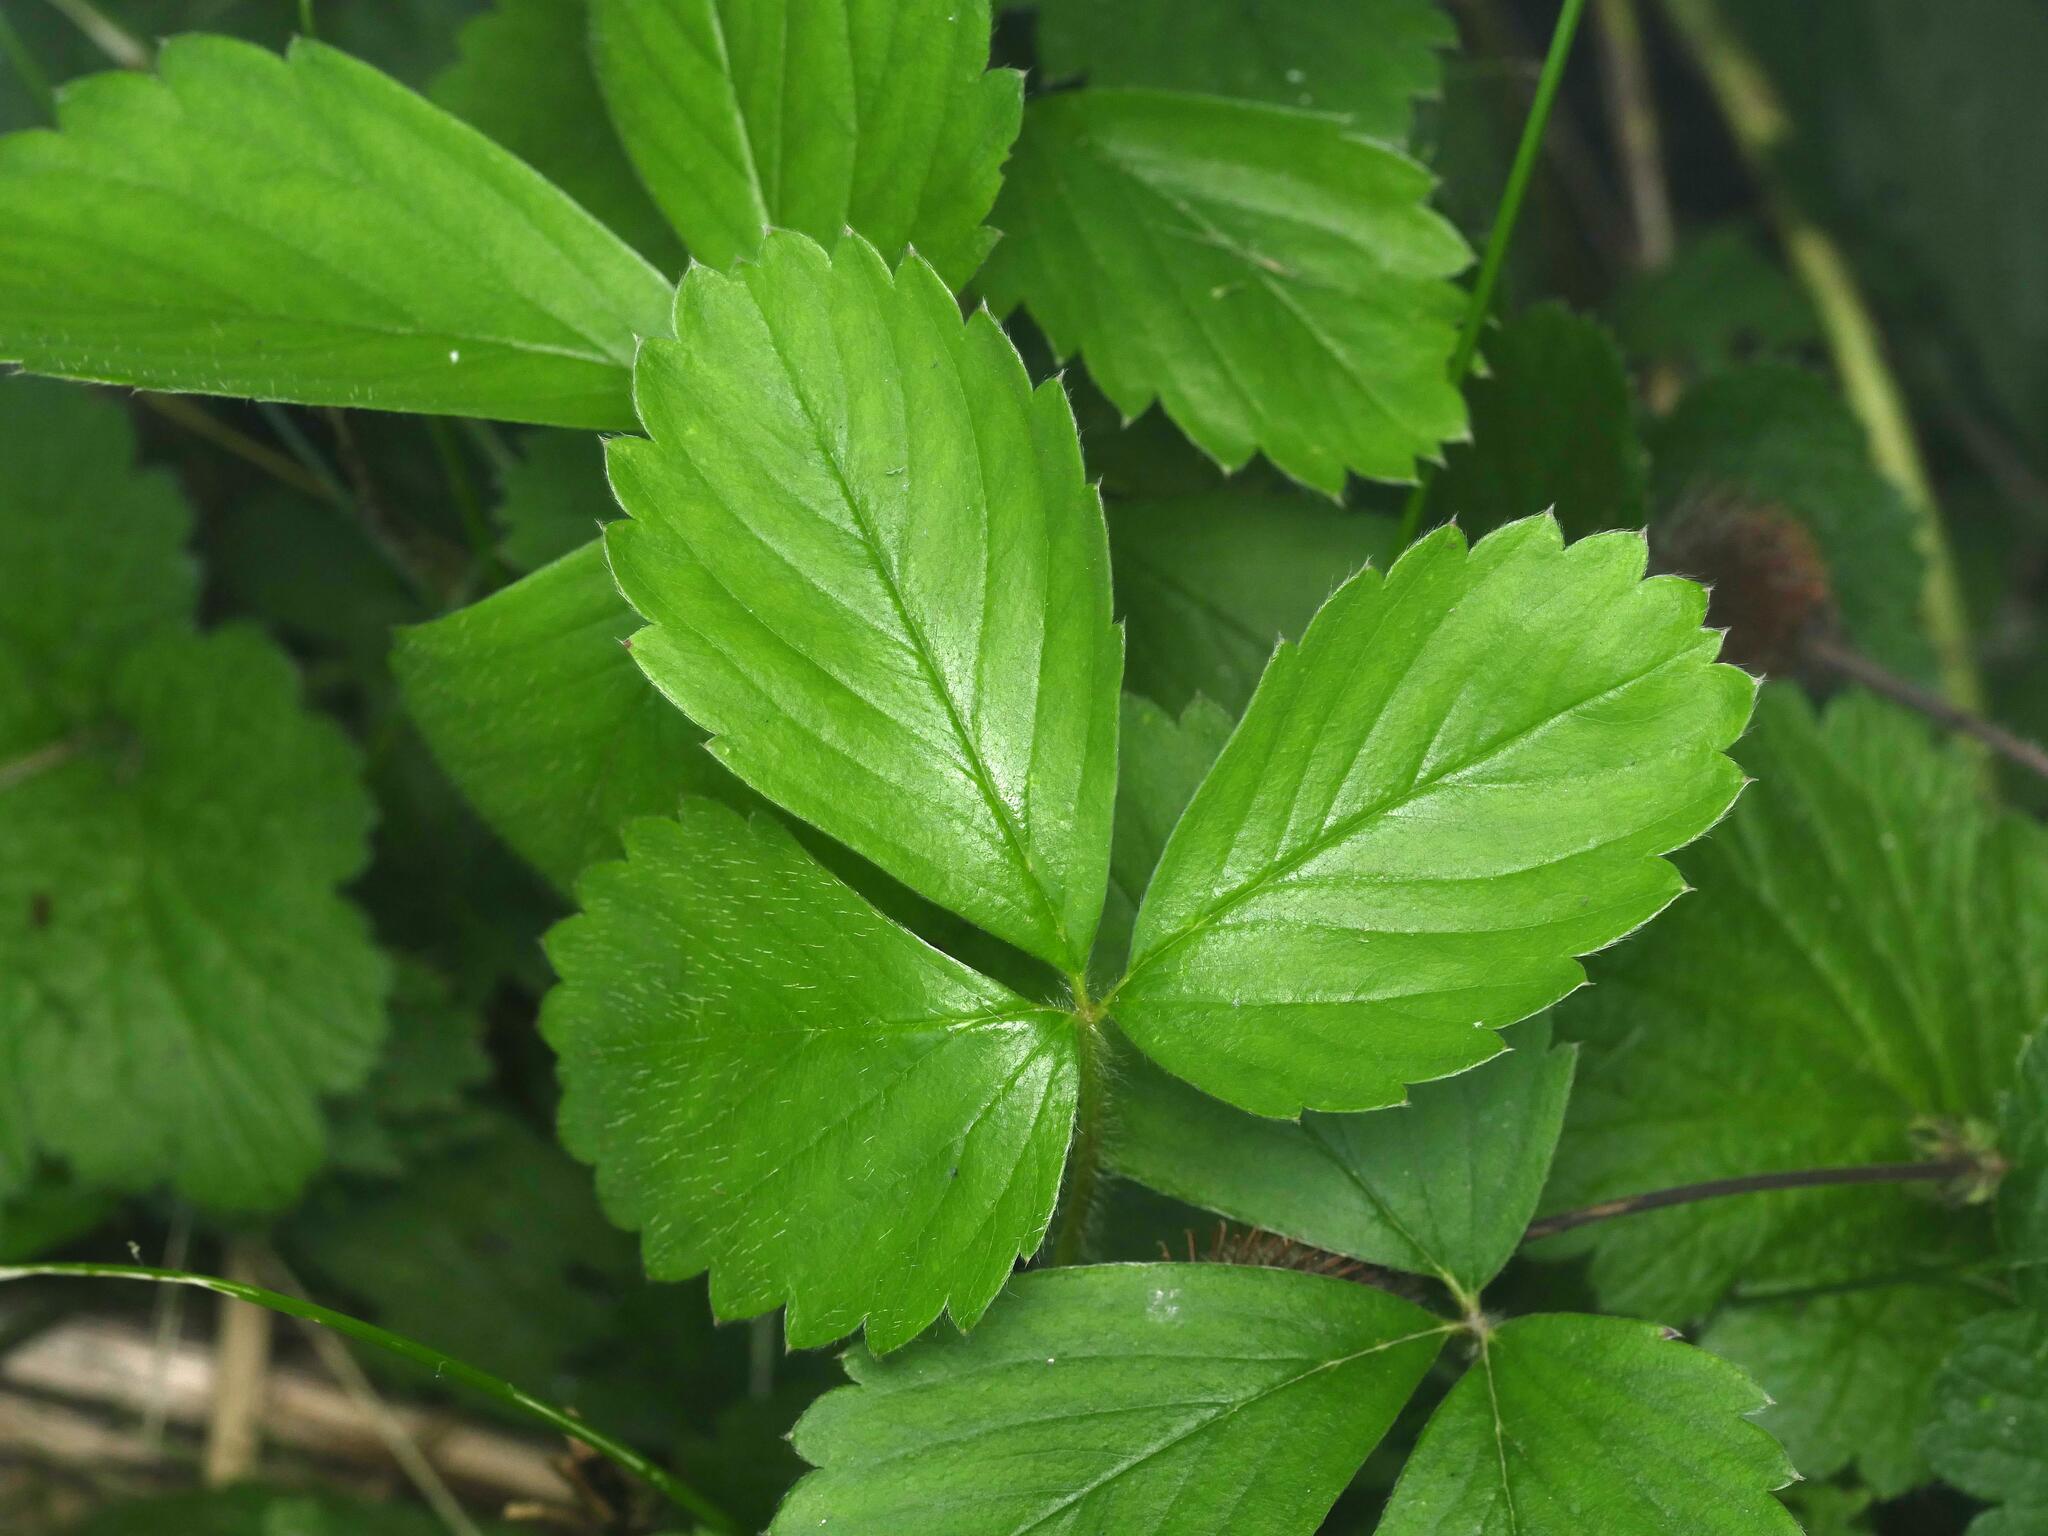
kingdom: Plantae
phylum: Tracheophyta
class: Magnoliopsida
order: Rosales
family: Rosaceae
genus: Fragaria
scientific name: Fragaria virginiana
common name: Thickleaved wild strawberry
